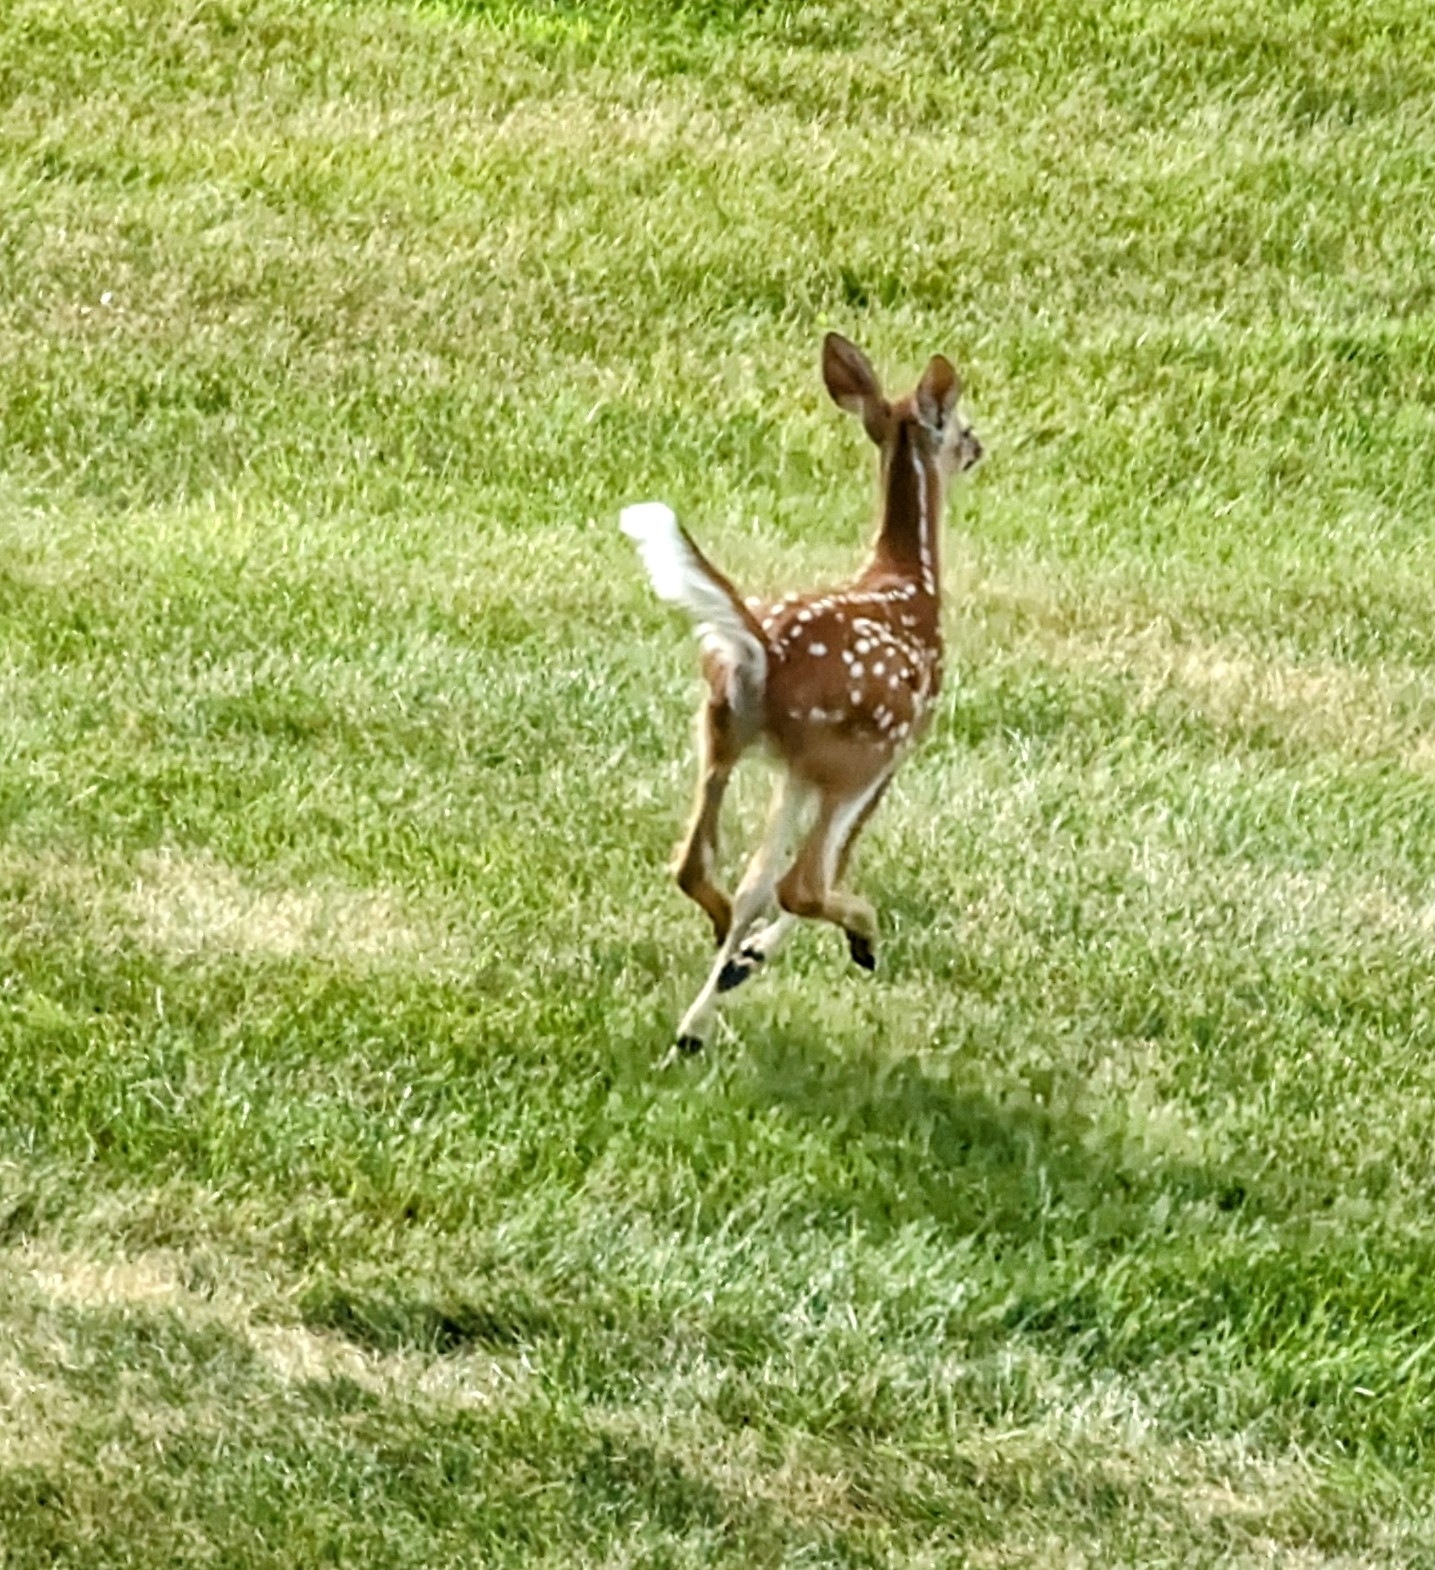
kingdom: Animalia
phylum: Chordata
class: Mammalia
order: Artiodactyla
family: Cervidae
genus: Odocoileus
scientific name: Odocoileus virginianus
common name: White-tailed deer
